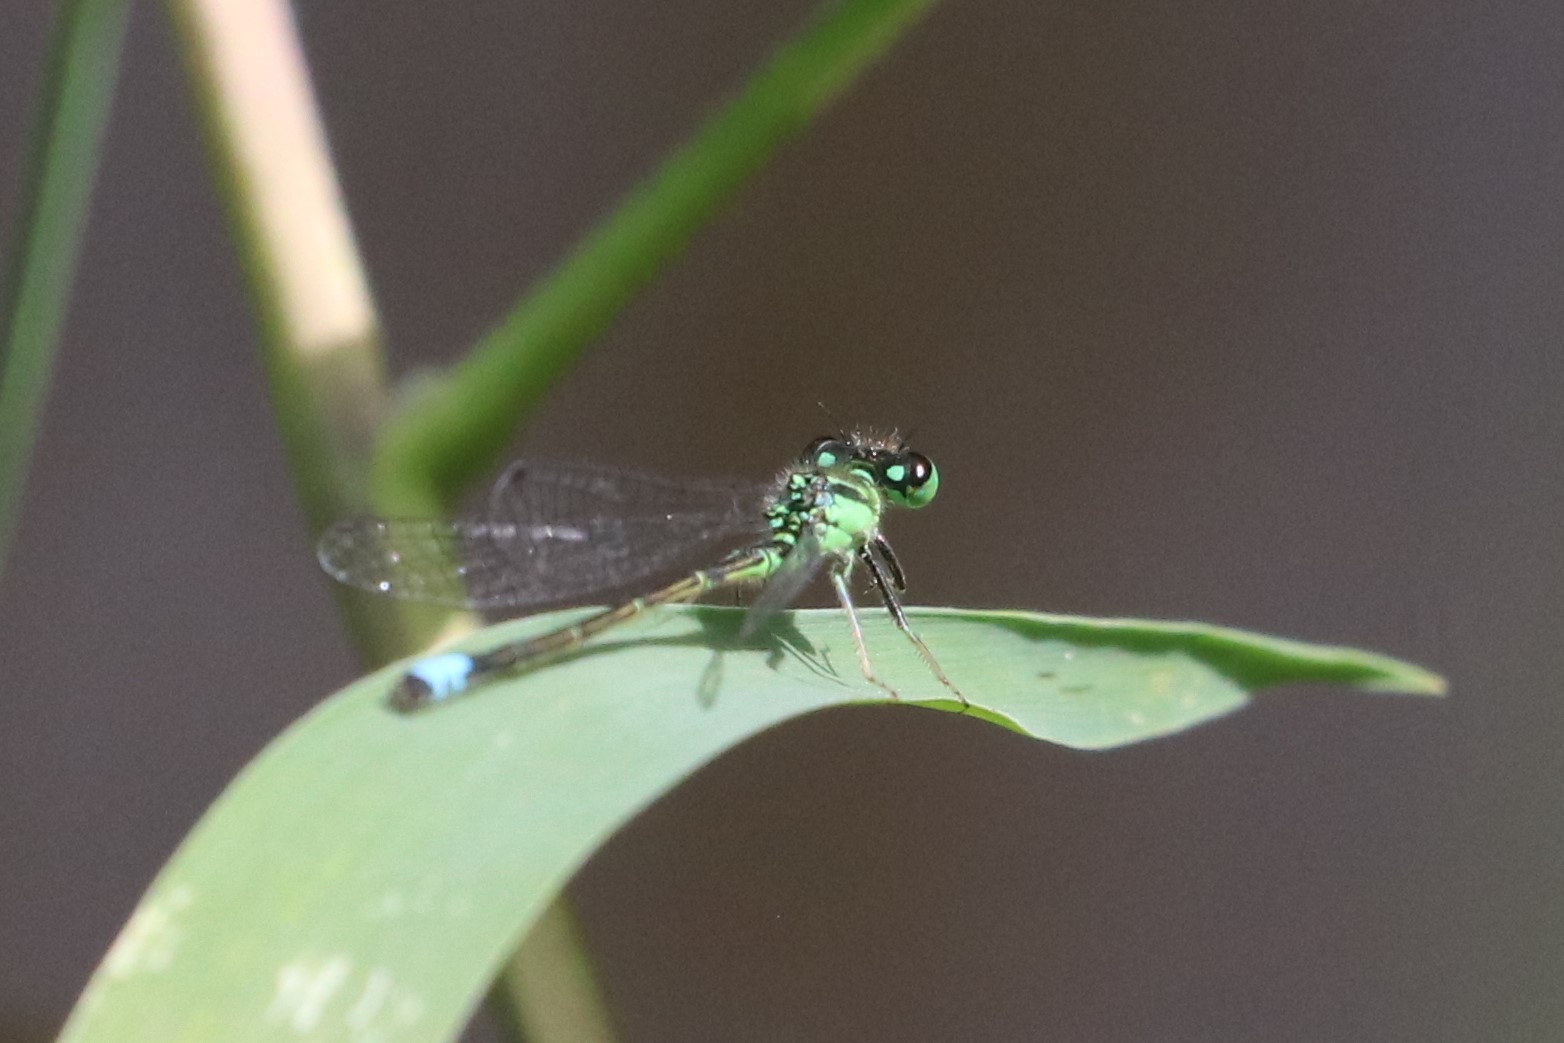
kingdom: Animalia
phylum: Arthropoda
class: Insecta
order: Odonata
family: Coenagrionidae
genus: Ischnura
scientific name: Ischnura verticalis
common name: Eastern forktail
